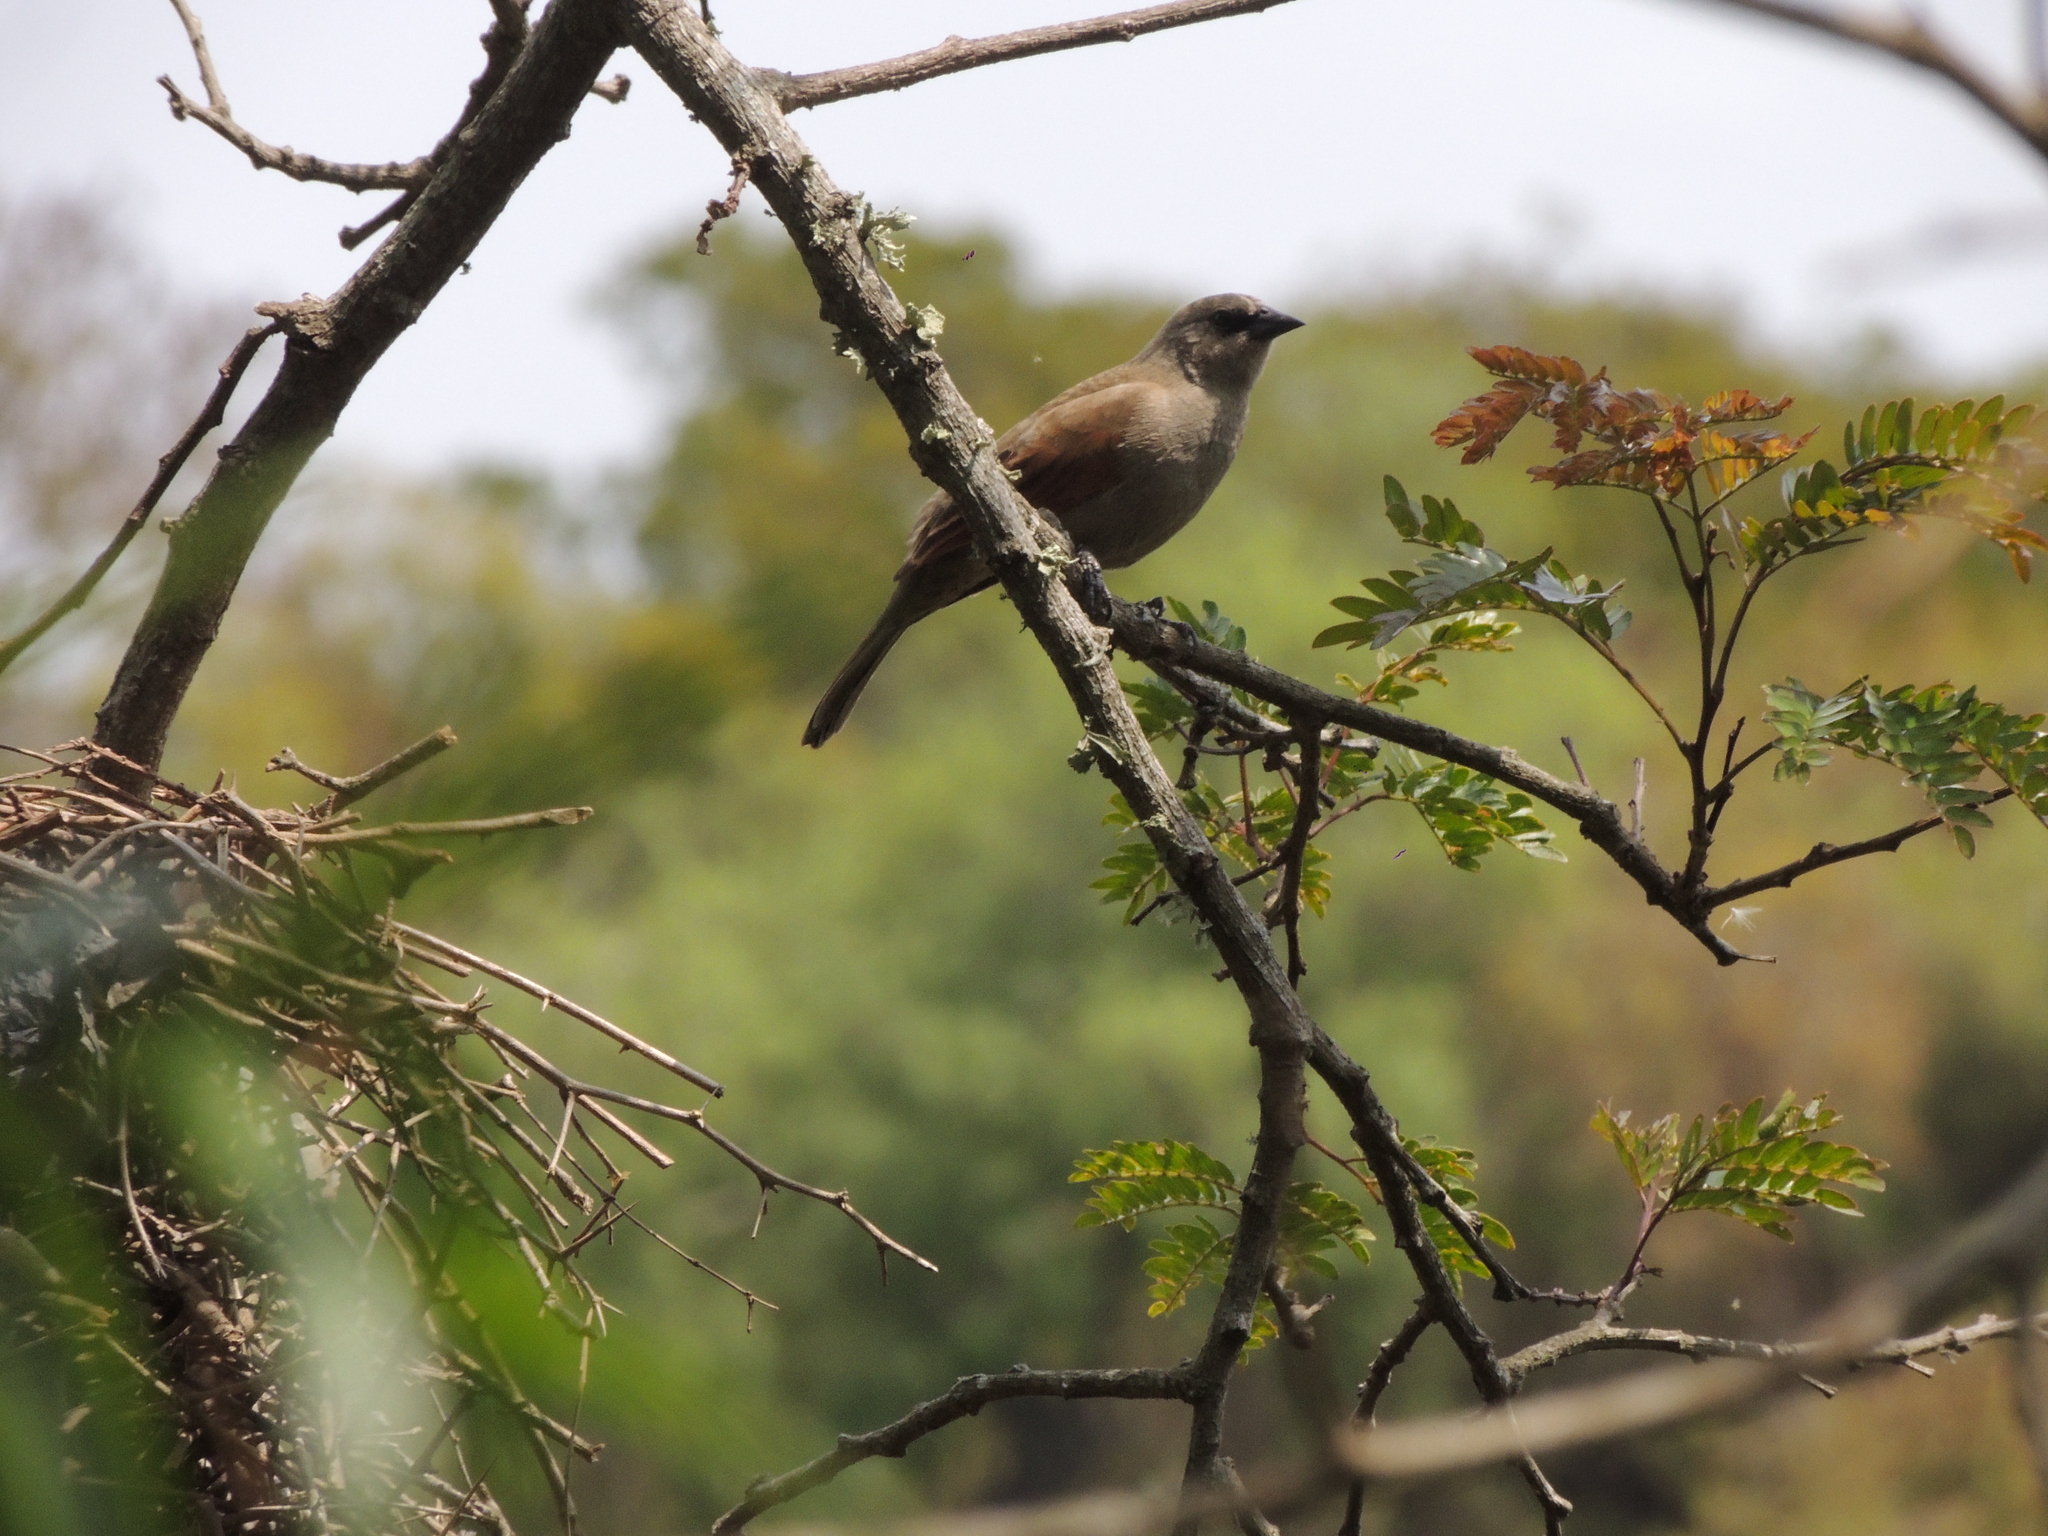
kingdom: Animalia
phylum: Chordata
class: Aves
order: Passeriformes
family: Icteridae
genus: Agelaioides
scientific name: Agelaioides badius
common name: Baywing
